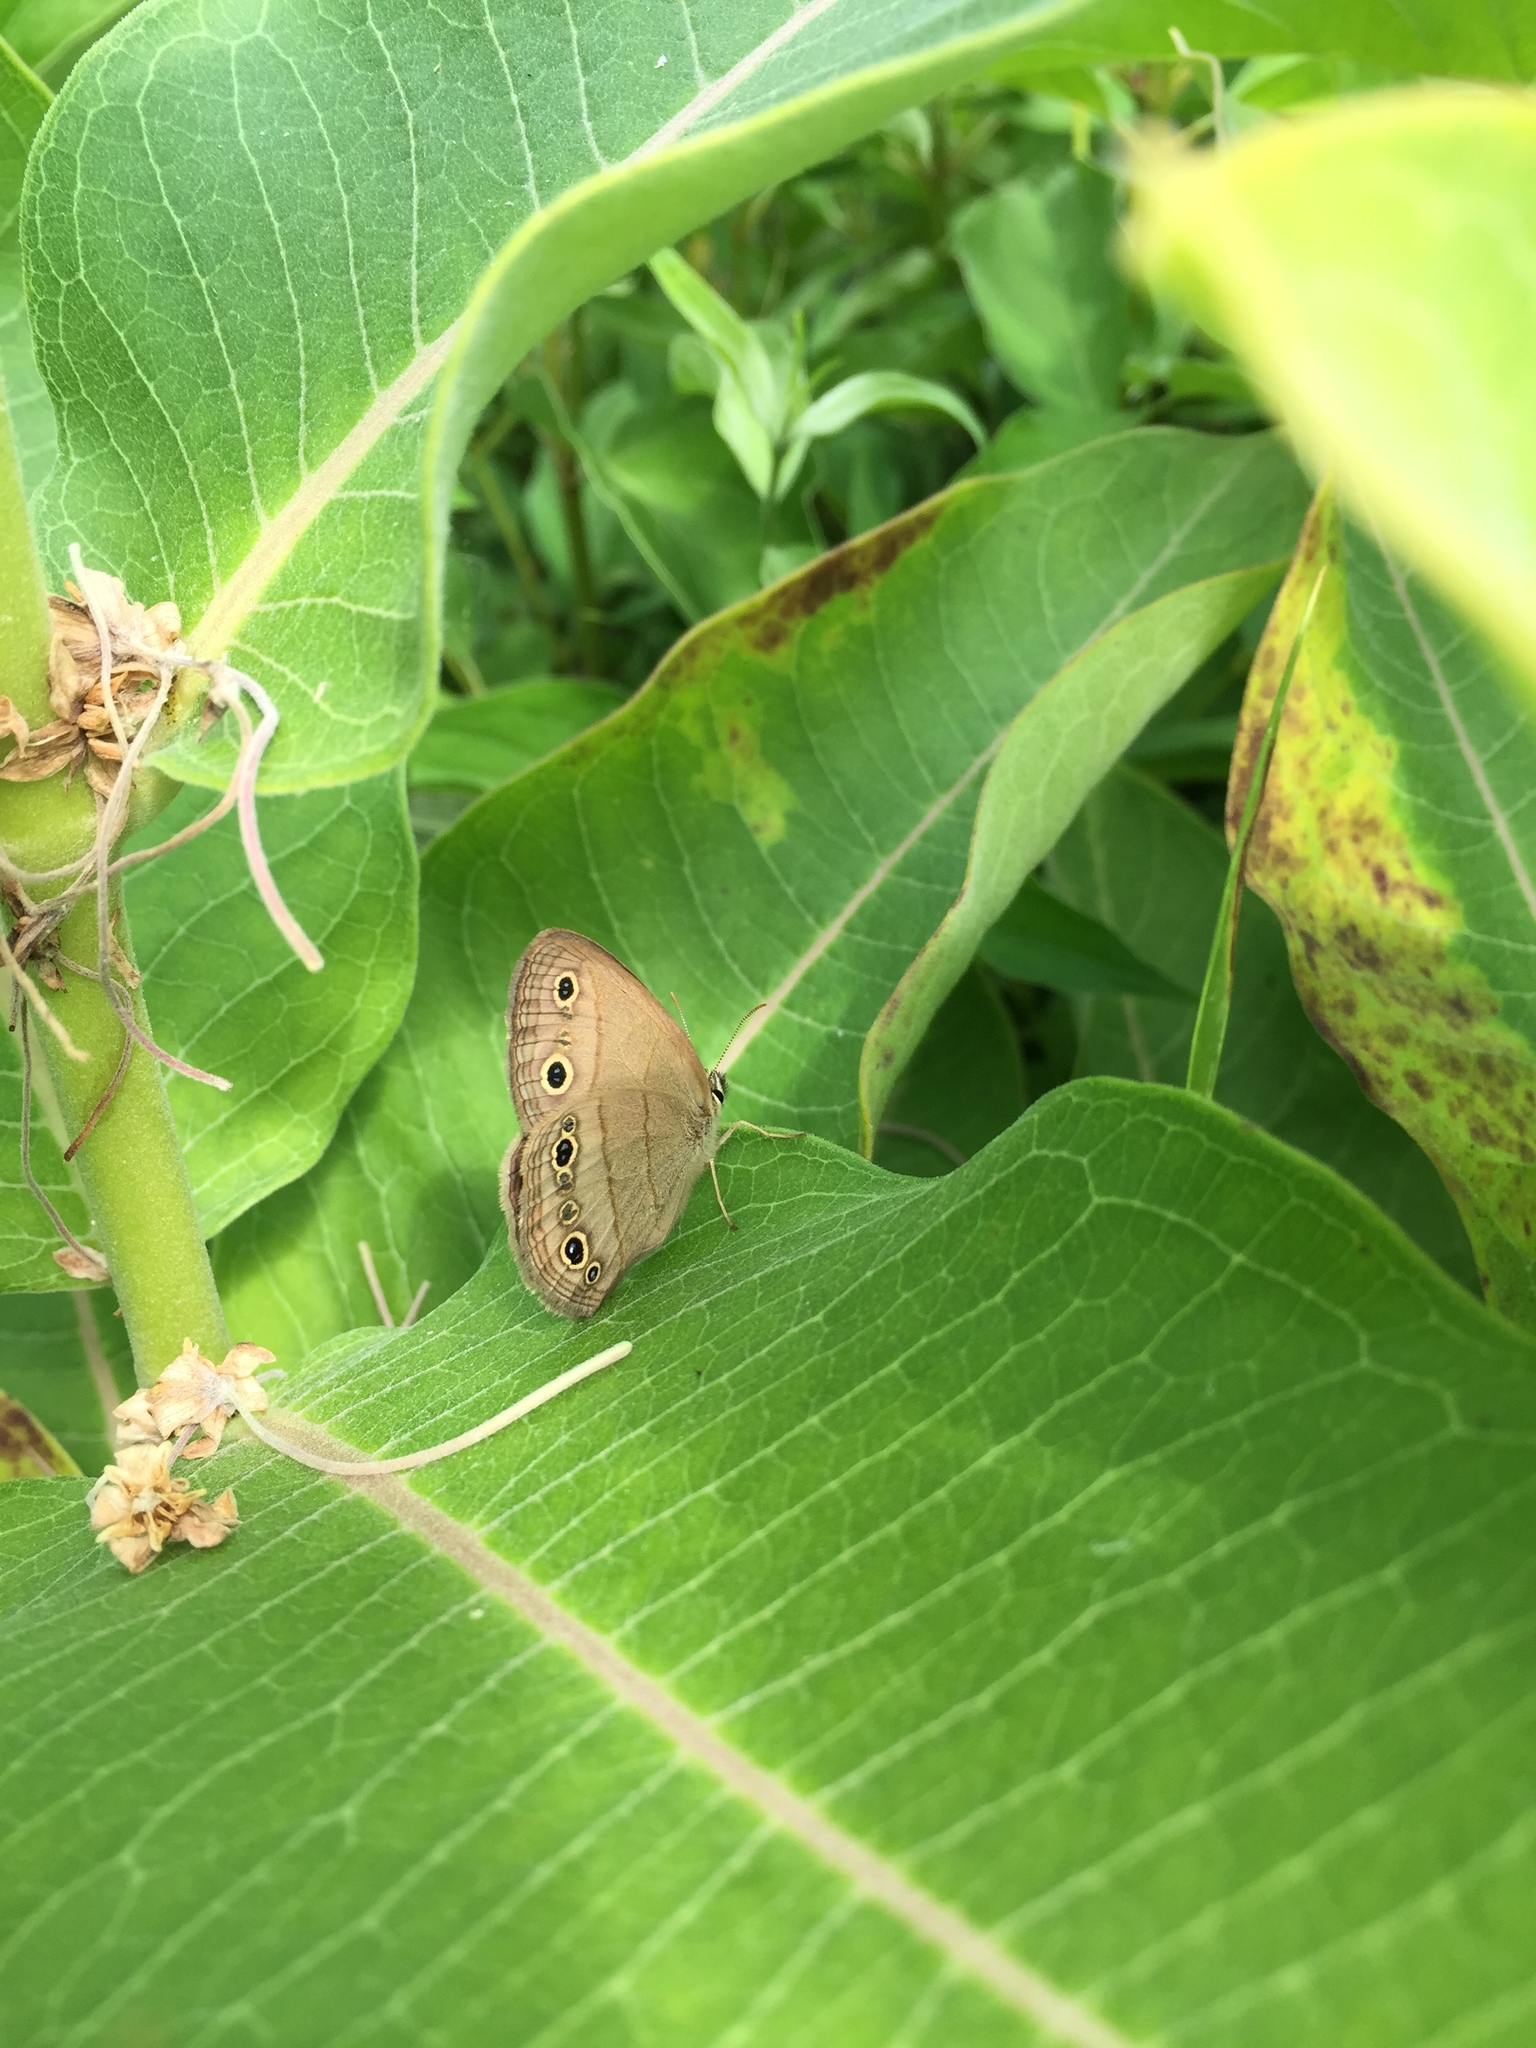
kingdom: Animalia
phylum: Arthropoda
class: Insecta
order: Lepidoptera
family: Nymphalidae
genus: Euptychia
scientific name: Euptychia cymela
